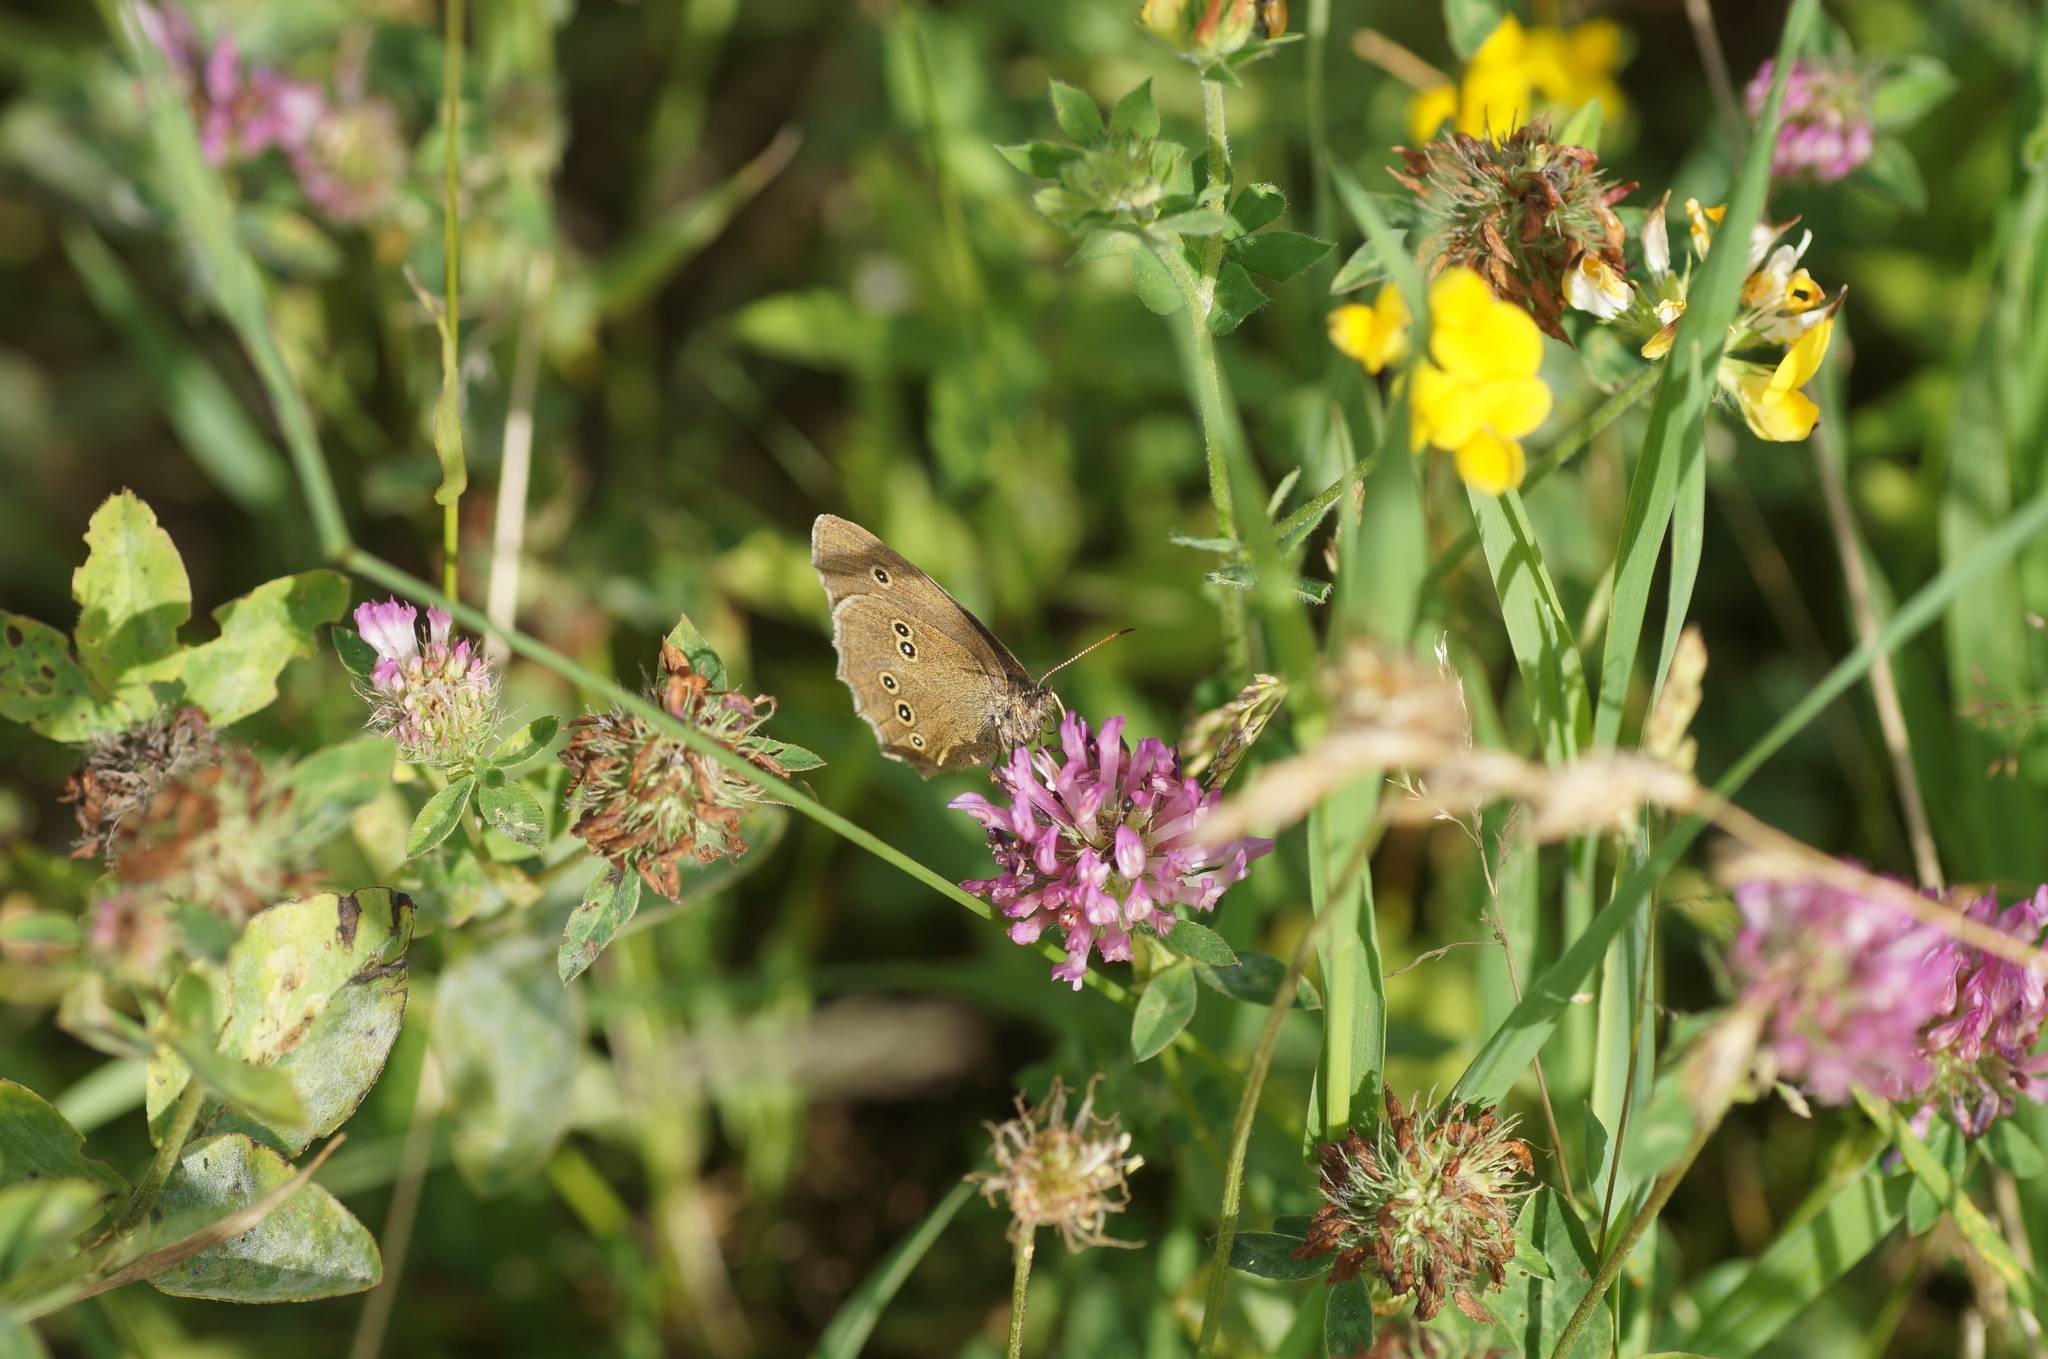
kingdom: Animalia
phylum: Arthropoda
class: Insecta
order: Lepidoptera
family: Nymphalidae
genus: Aphantopus
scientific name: Aphantopus hyperantus
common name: Ringlet
